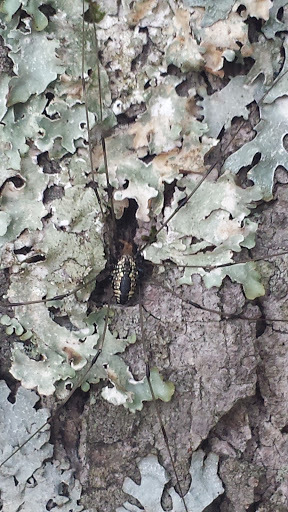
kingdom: Animalia
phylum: Arthropoda
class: Arachnida
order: Opiliones
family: Sclerosomatidae
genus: Leiobunum
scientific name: Leiobunum vittatum
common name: Eastern harvestman
